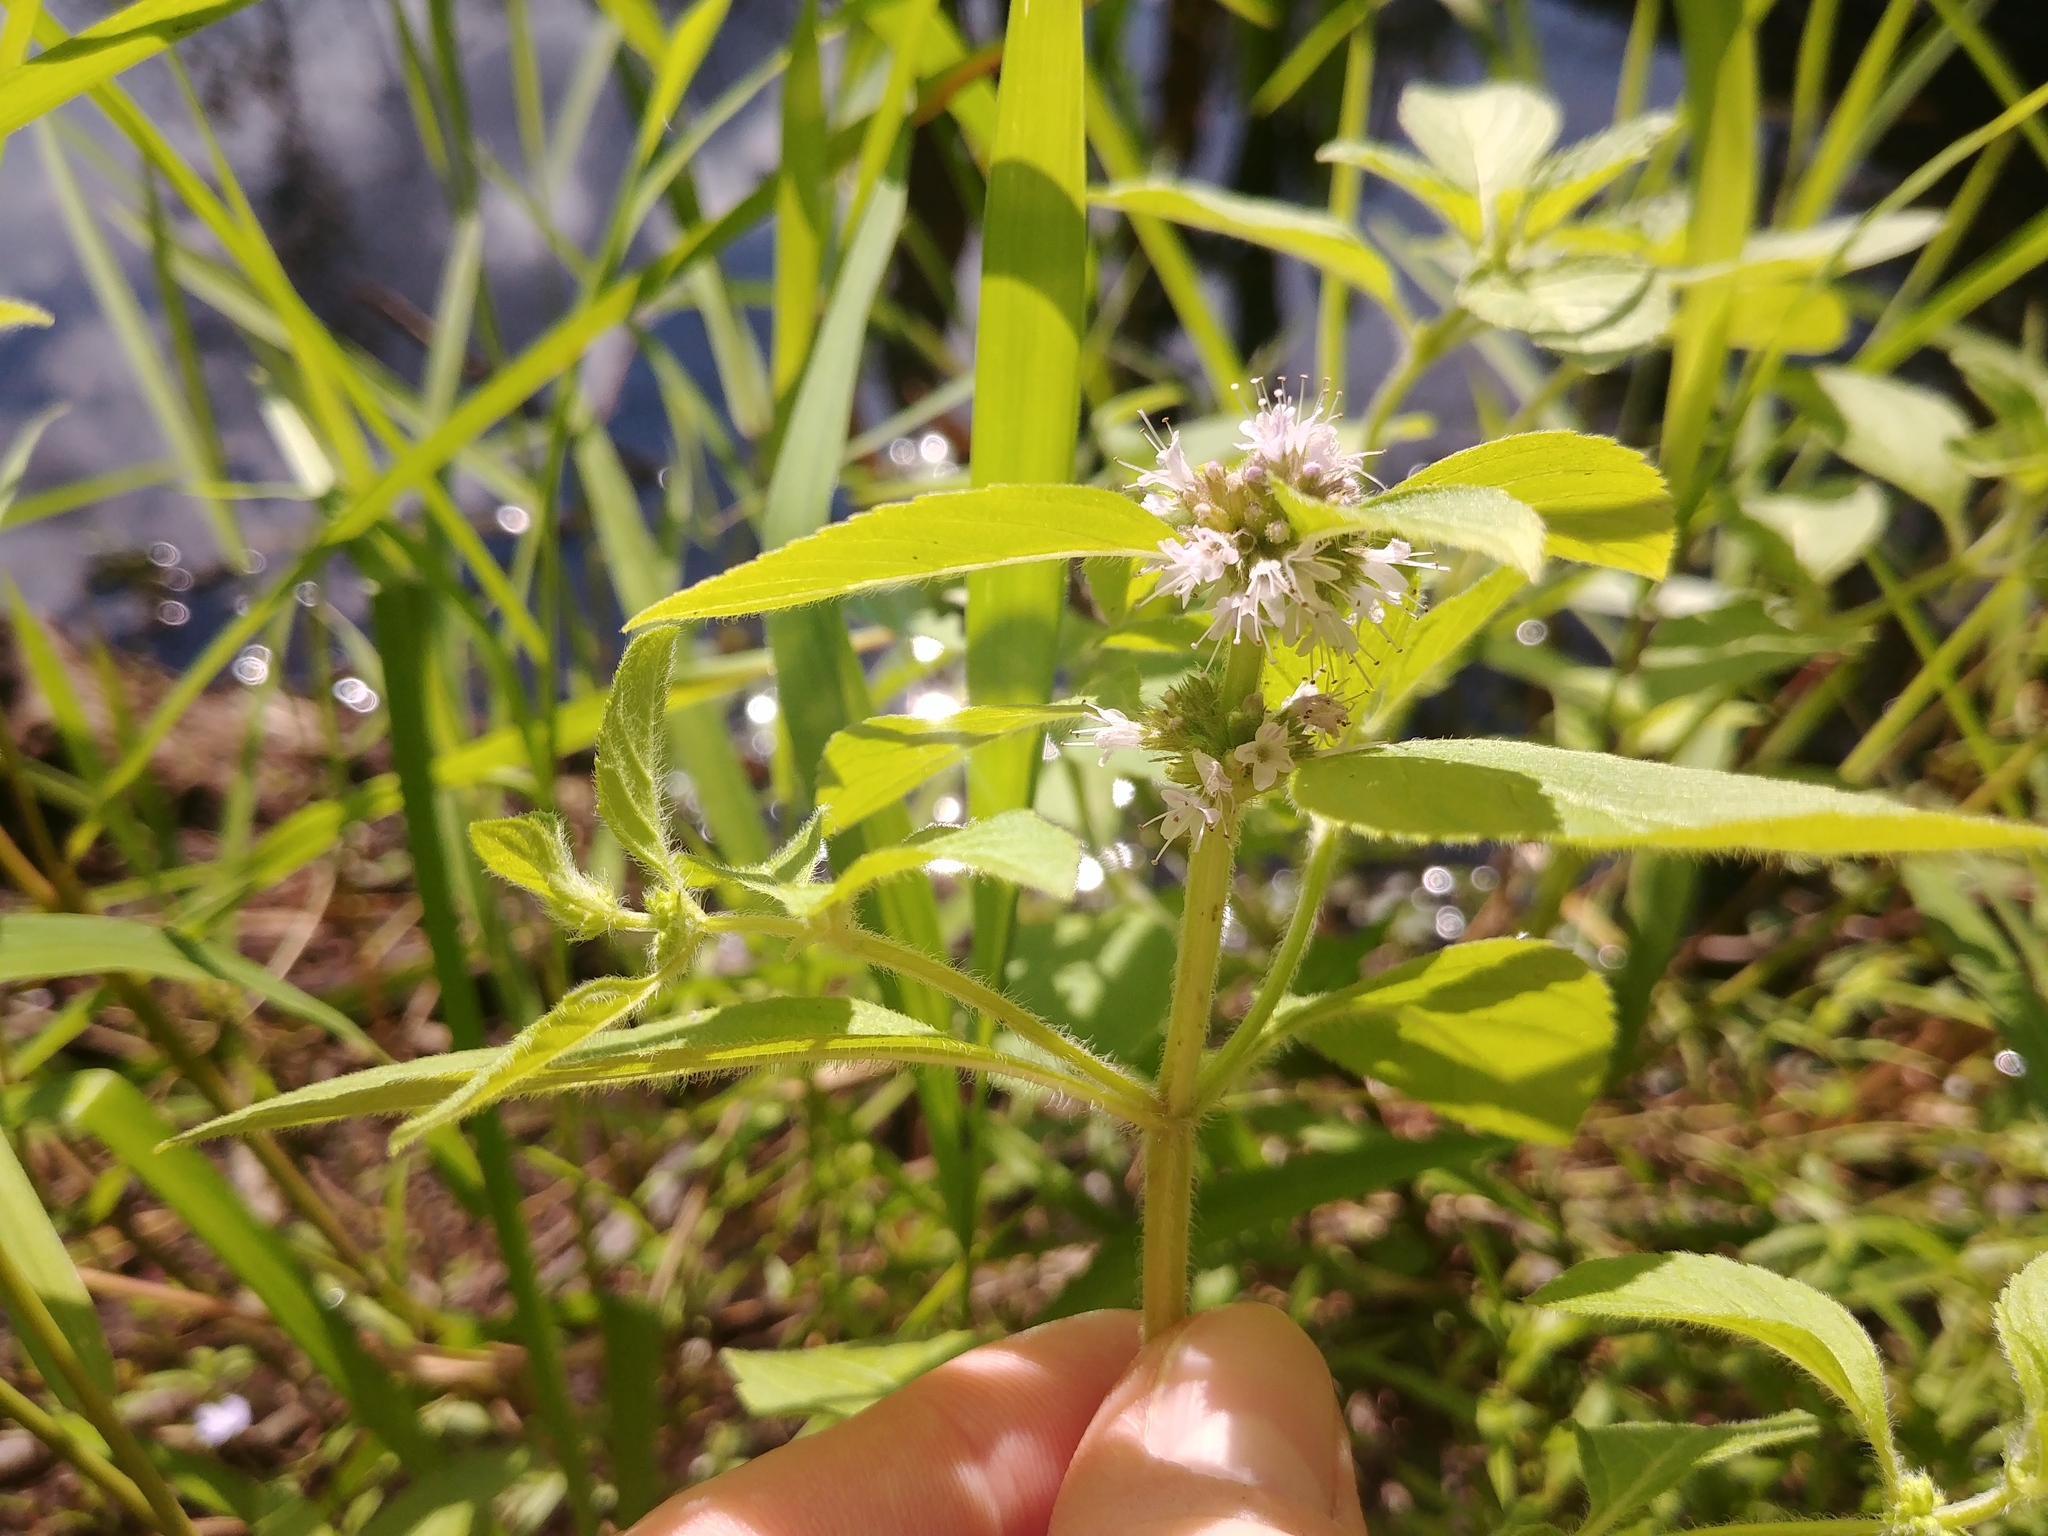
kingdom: Plantae
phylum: Tracheophyta
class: Magnoliopsida
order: Lamiales
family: Lamiaceae
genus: Mentha
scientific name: Mentha canadensis
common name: American corn mint
